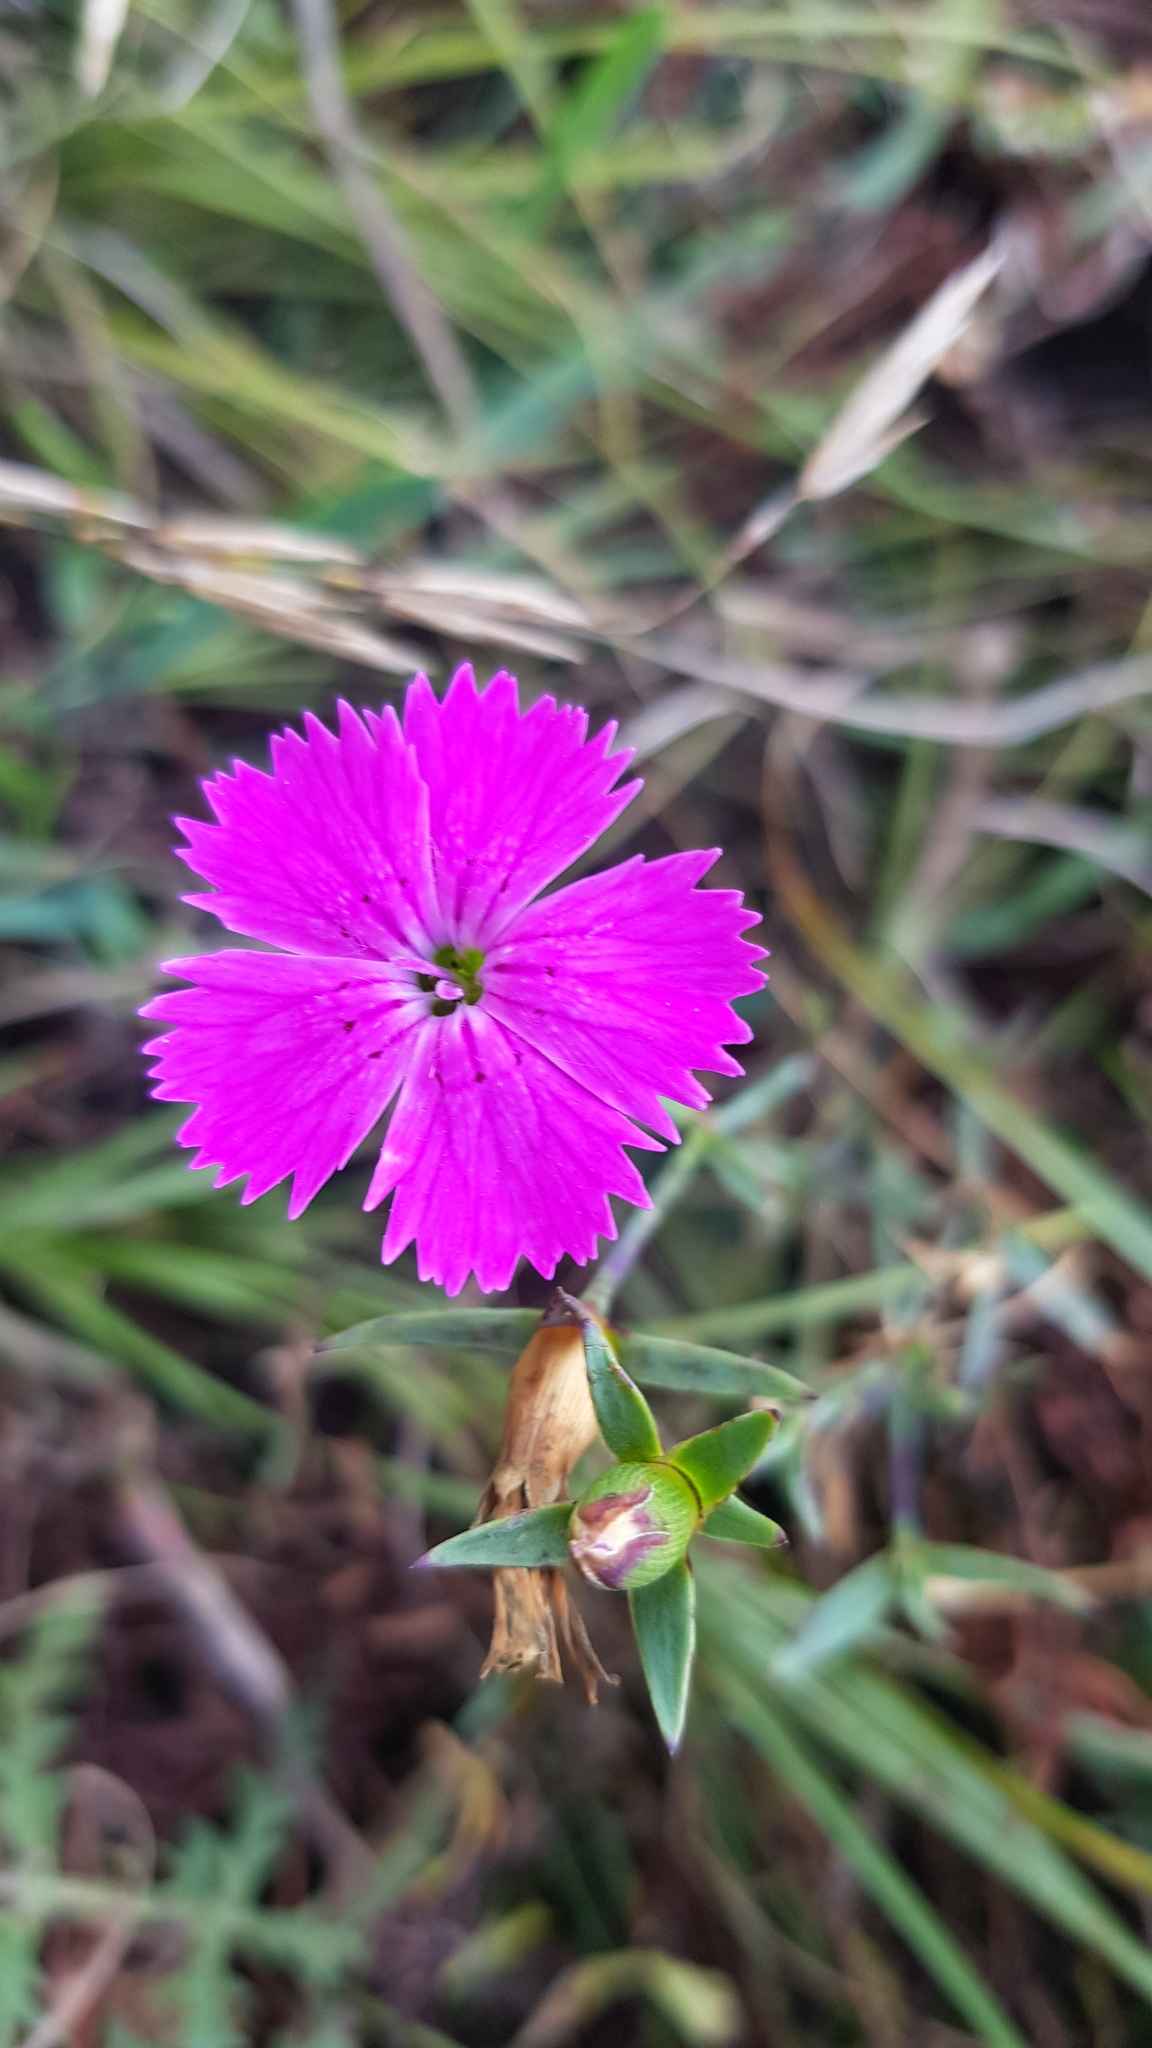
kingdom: Plantae
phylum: Tracheophyta
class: Magnoliopsida
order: Caryophyllales
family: Caryophyllaceae
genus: Dianthus
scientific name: Dianthus chinensis
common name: Rainbow pink
